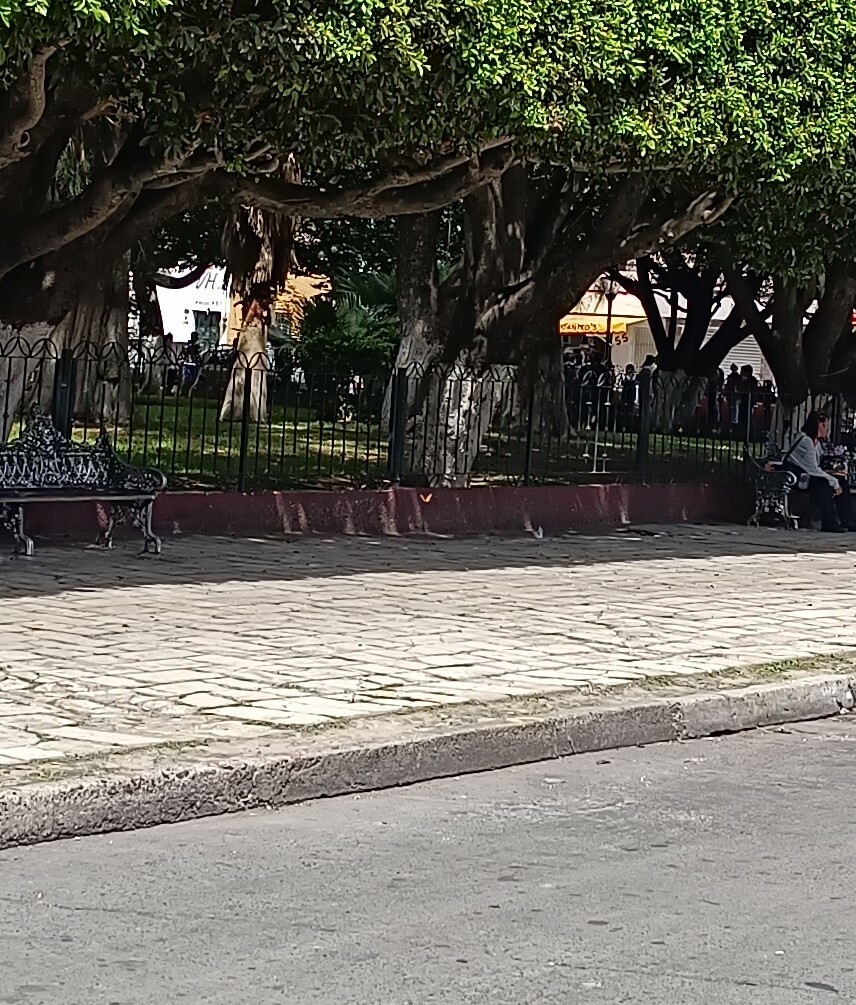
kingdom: Animalia
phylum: Arthropoda
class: Insecta
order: Lepidoptera
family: Nymphalidae
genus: Danaus
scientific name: Danaus plexippus
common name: Monarch
